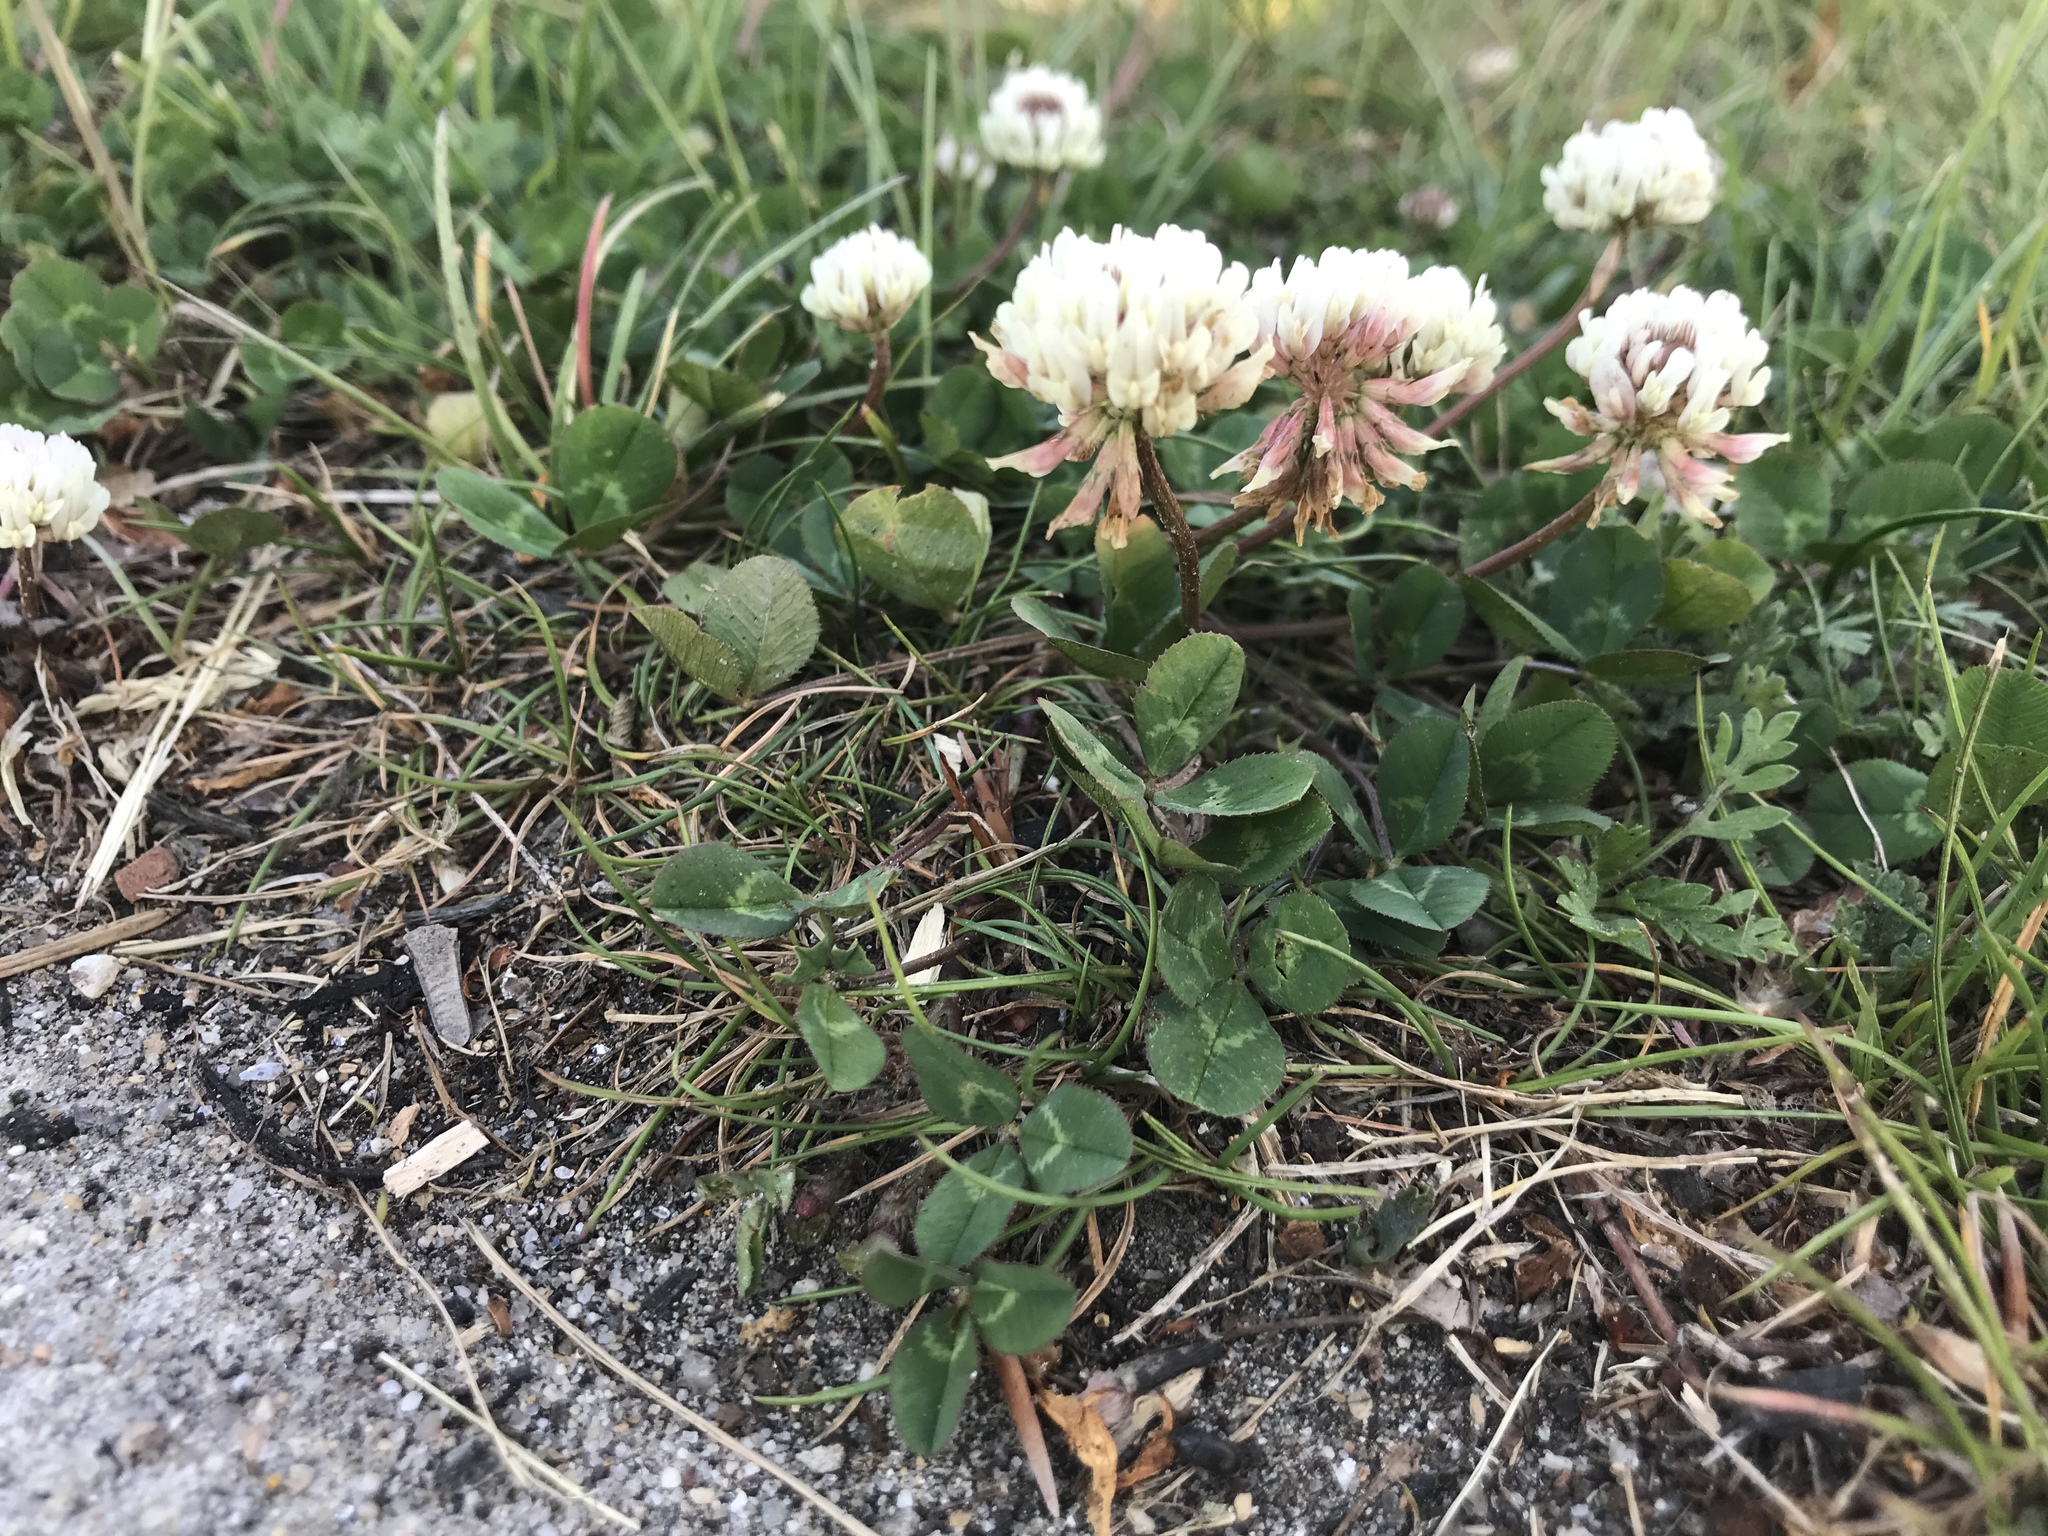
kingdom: Plantae
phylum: Tracheophyta
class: Magnoliopsida
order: Fabales
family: Fabaceae
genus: Trifolium
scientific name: Trifolium repens
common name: White clover
